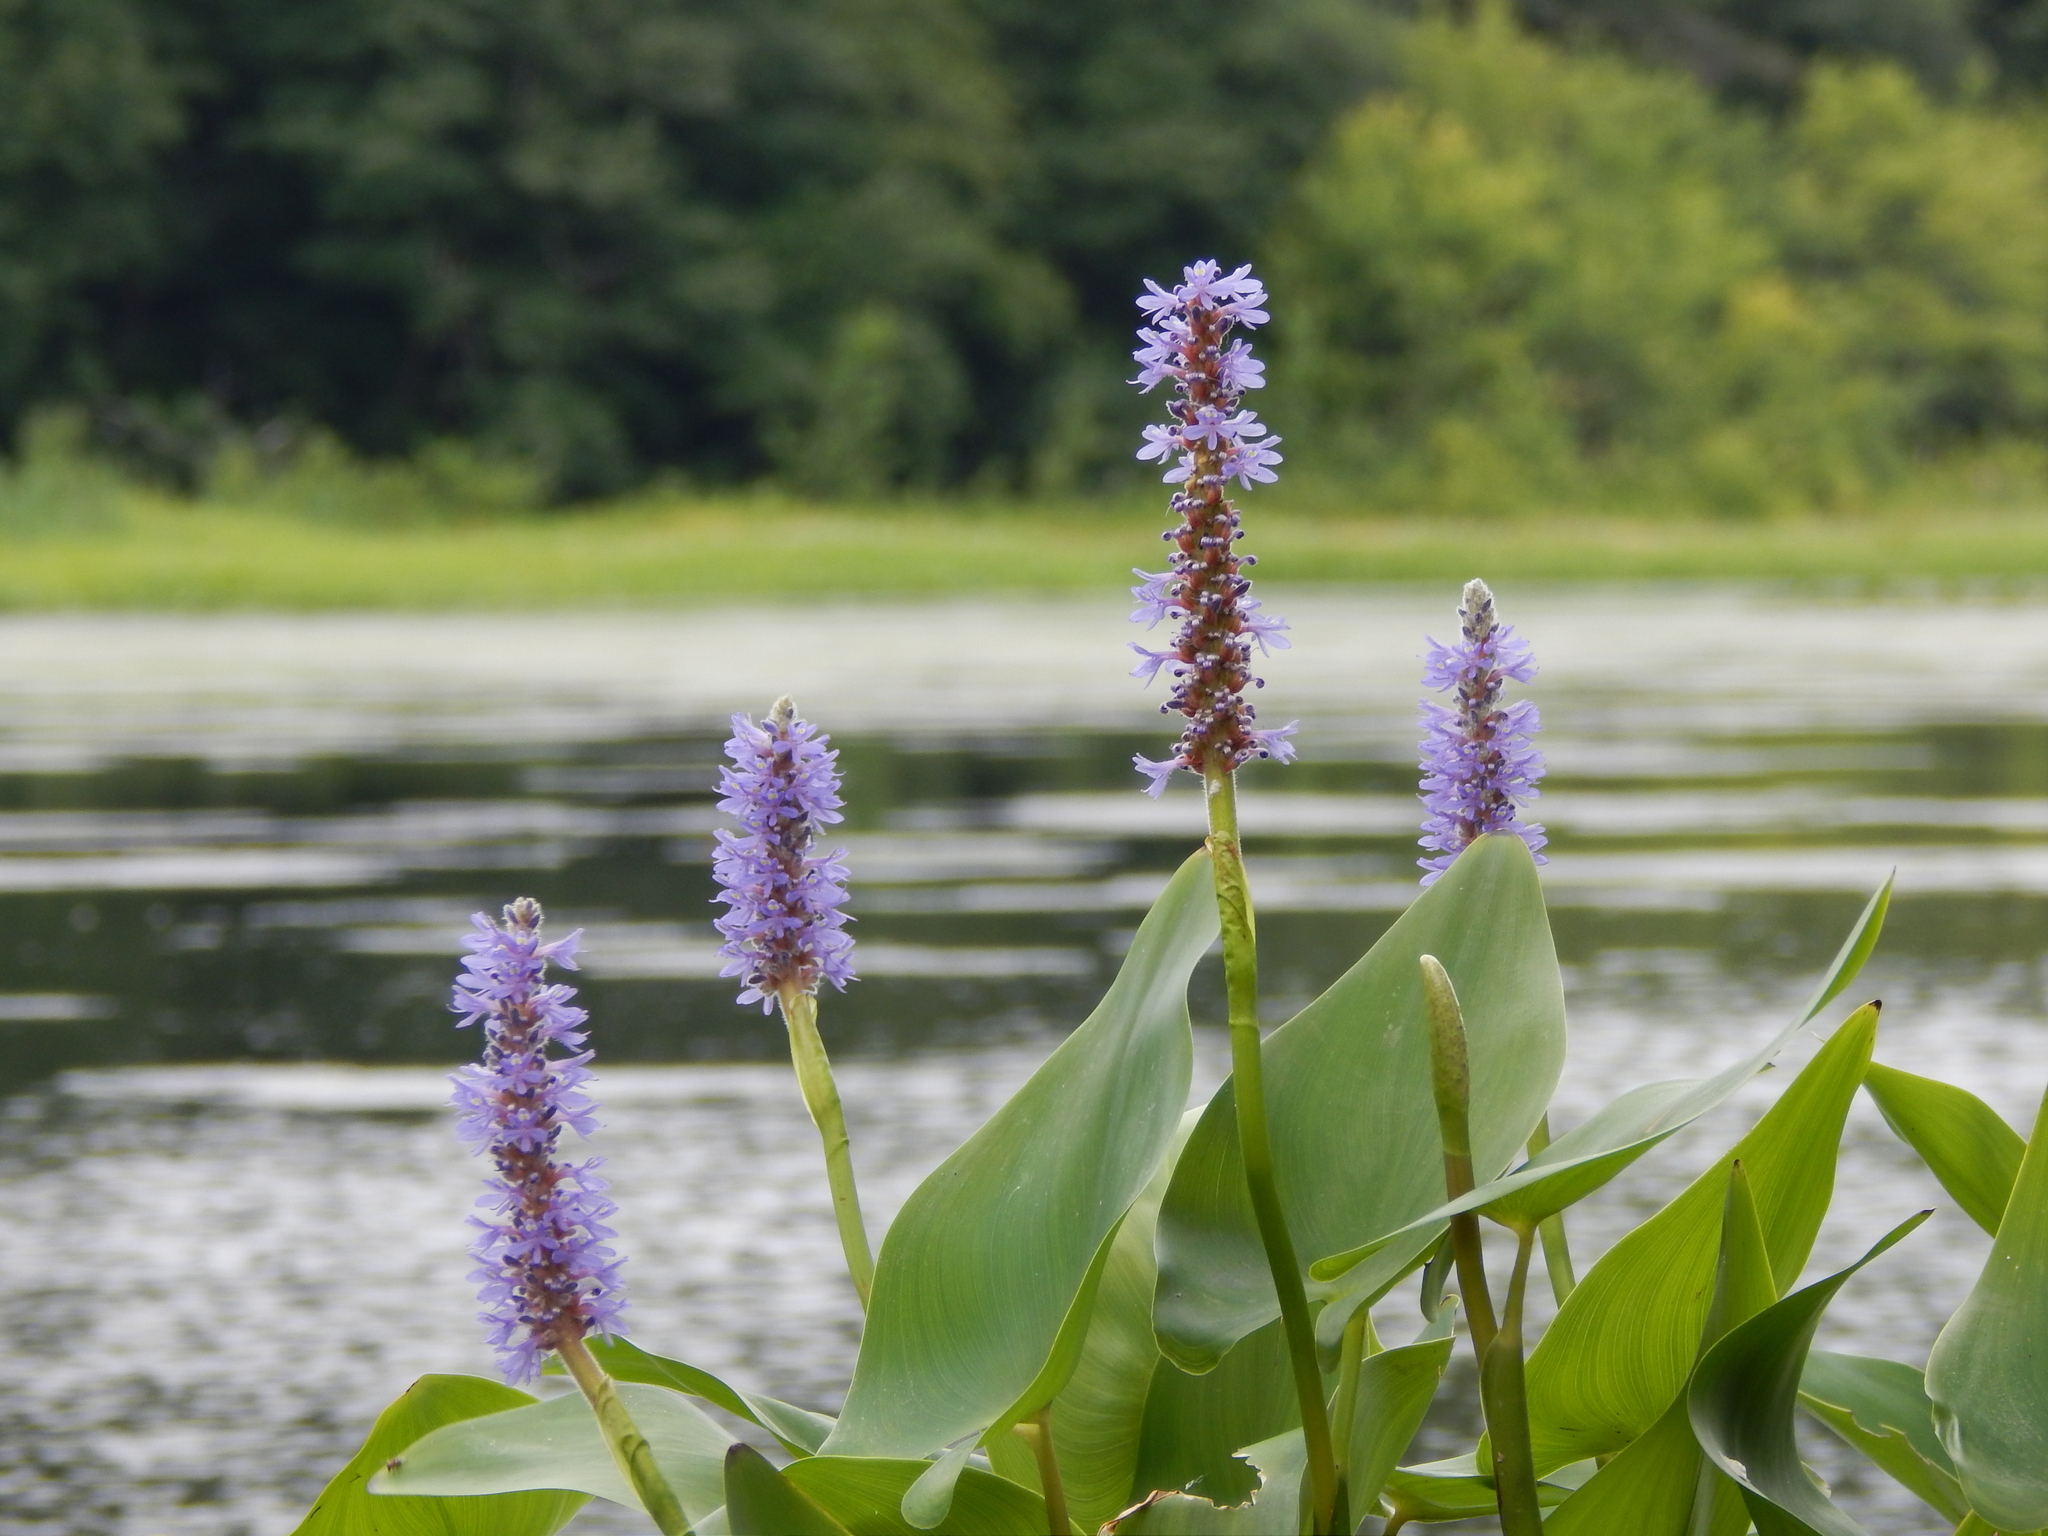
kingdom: Plantae
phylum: Tracheophyta
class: Liliopsida
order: Commelinales
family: Pontederiaceae
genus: Pontederia
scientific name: Pontederia cordata
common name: Pickerelweed
